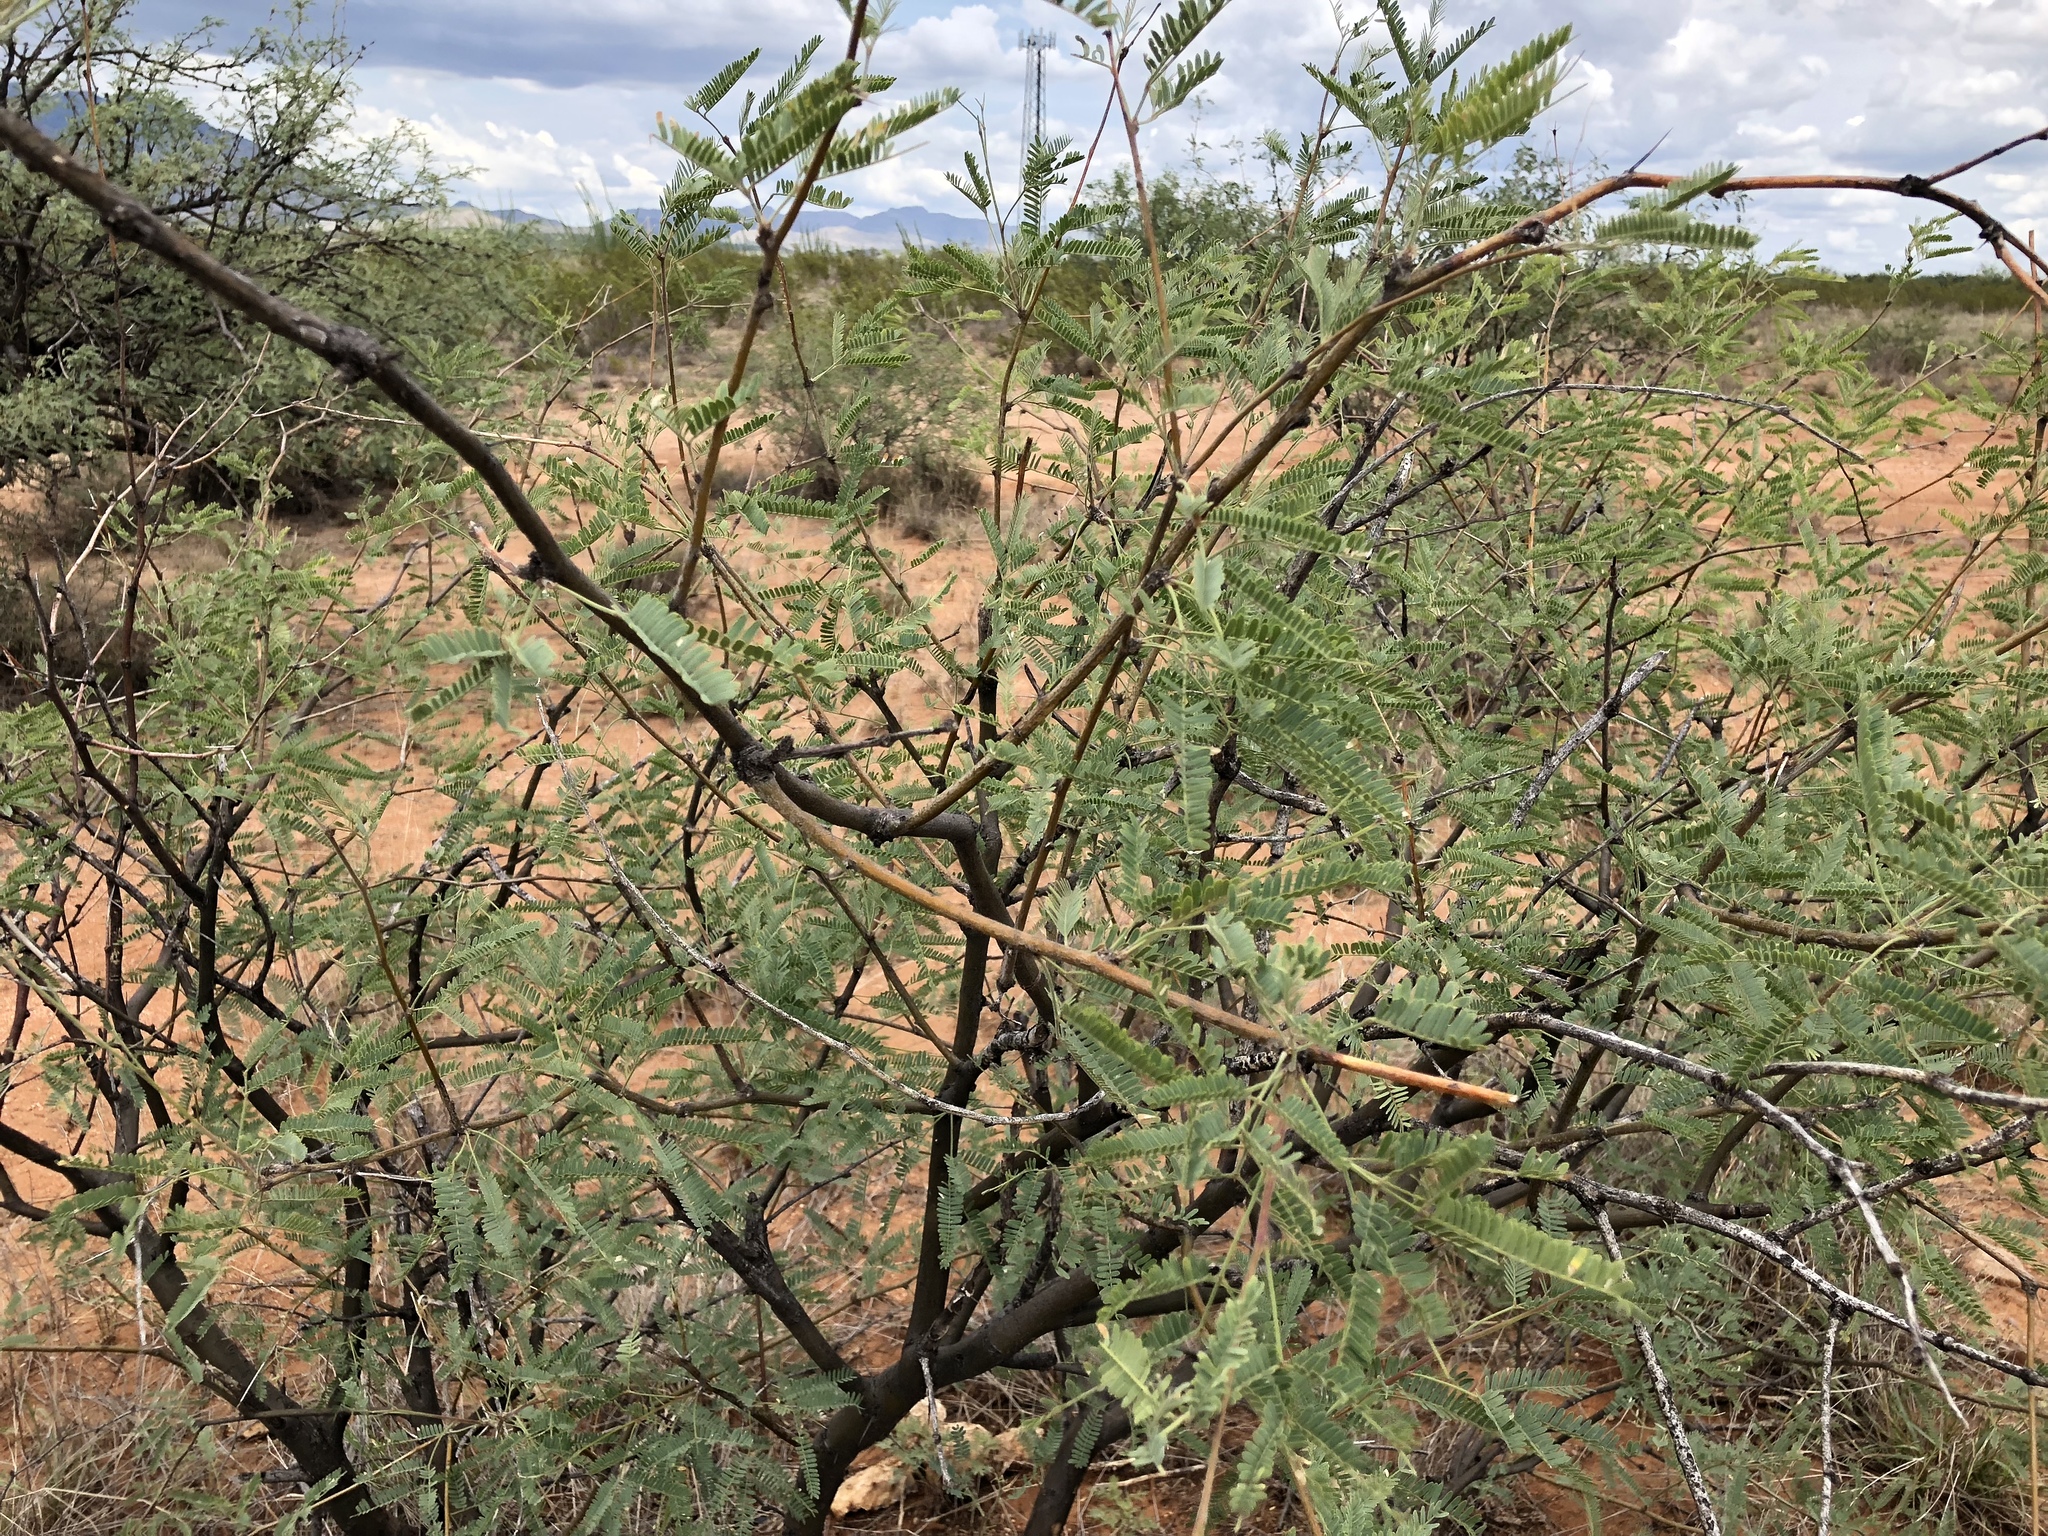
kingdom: Plantae
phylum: Tracheophyta
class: Magnoliopsida
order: Fabales
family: Fabaceae
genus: Prosopis
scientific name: Prosopis velutina
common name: Velvet mesquite
